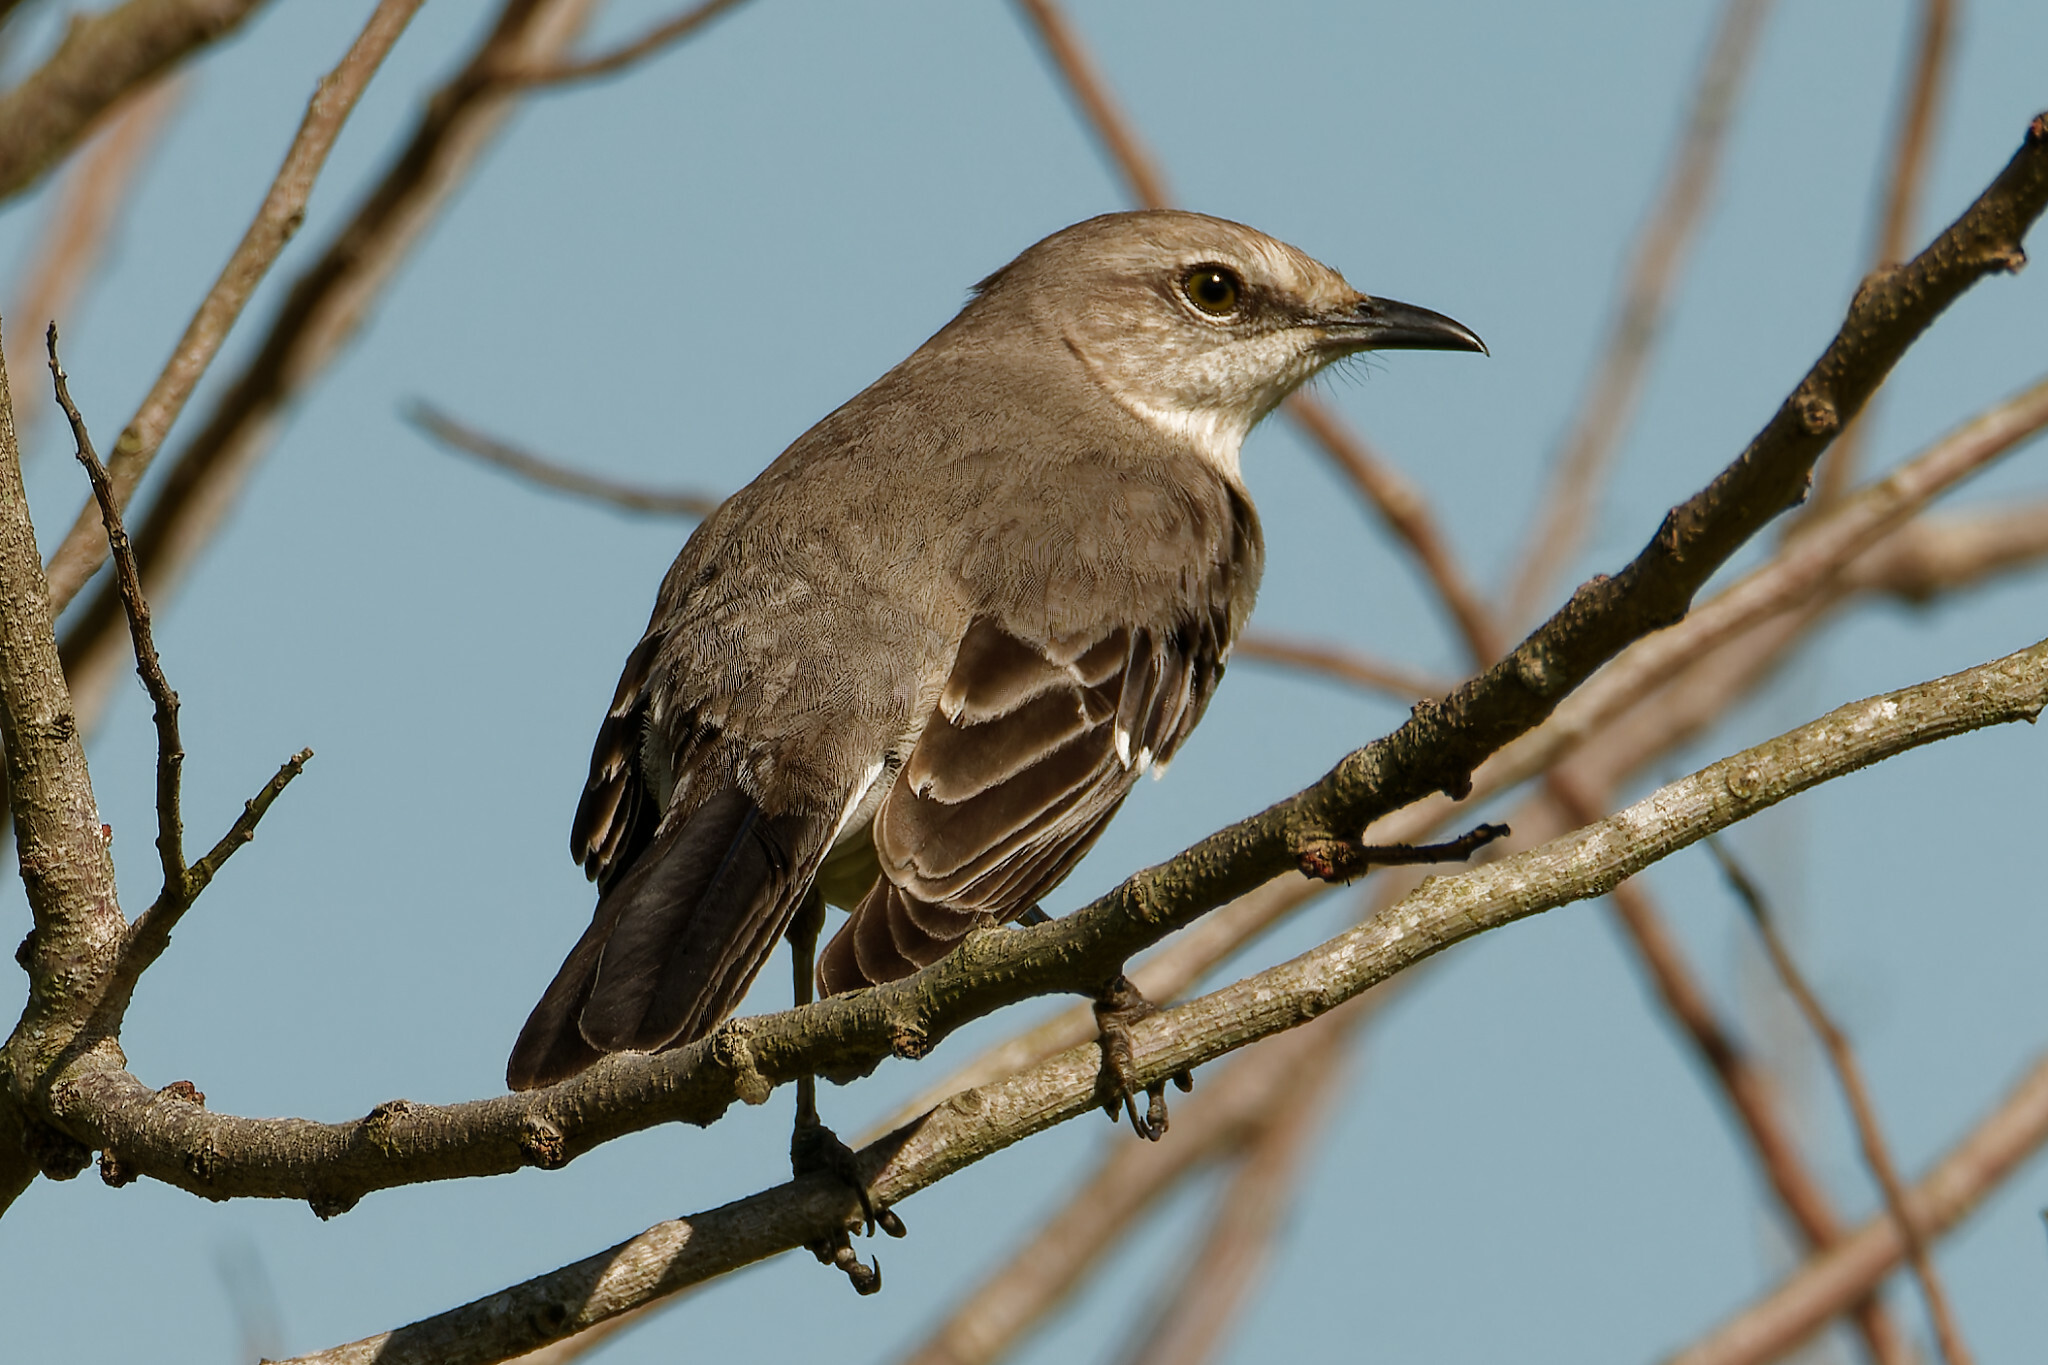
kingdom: Animalia
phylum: Chordata
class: Aves
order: Passeriformes
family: Mimidae
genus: Mimus
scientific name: Mimus polyglottos
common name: Northern mockingbird
